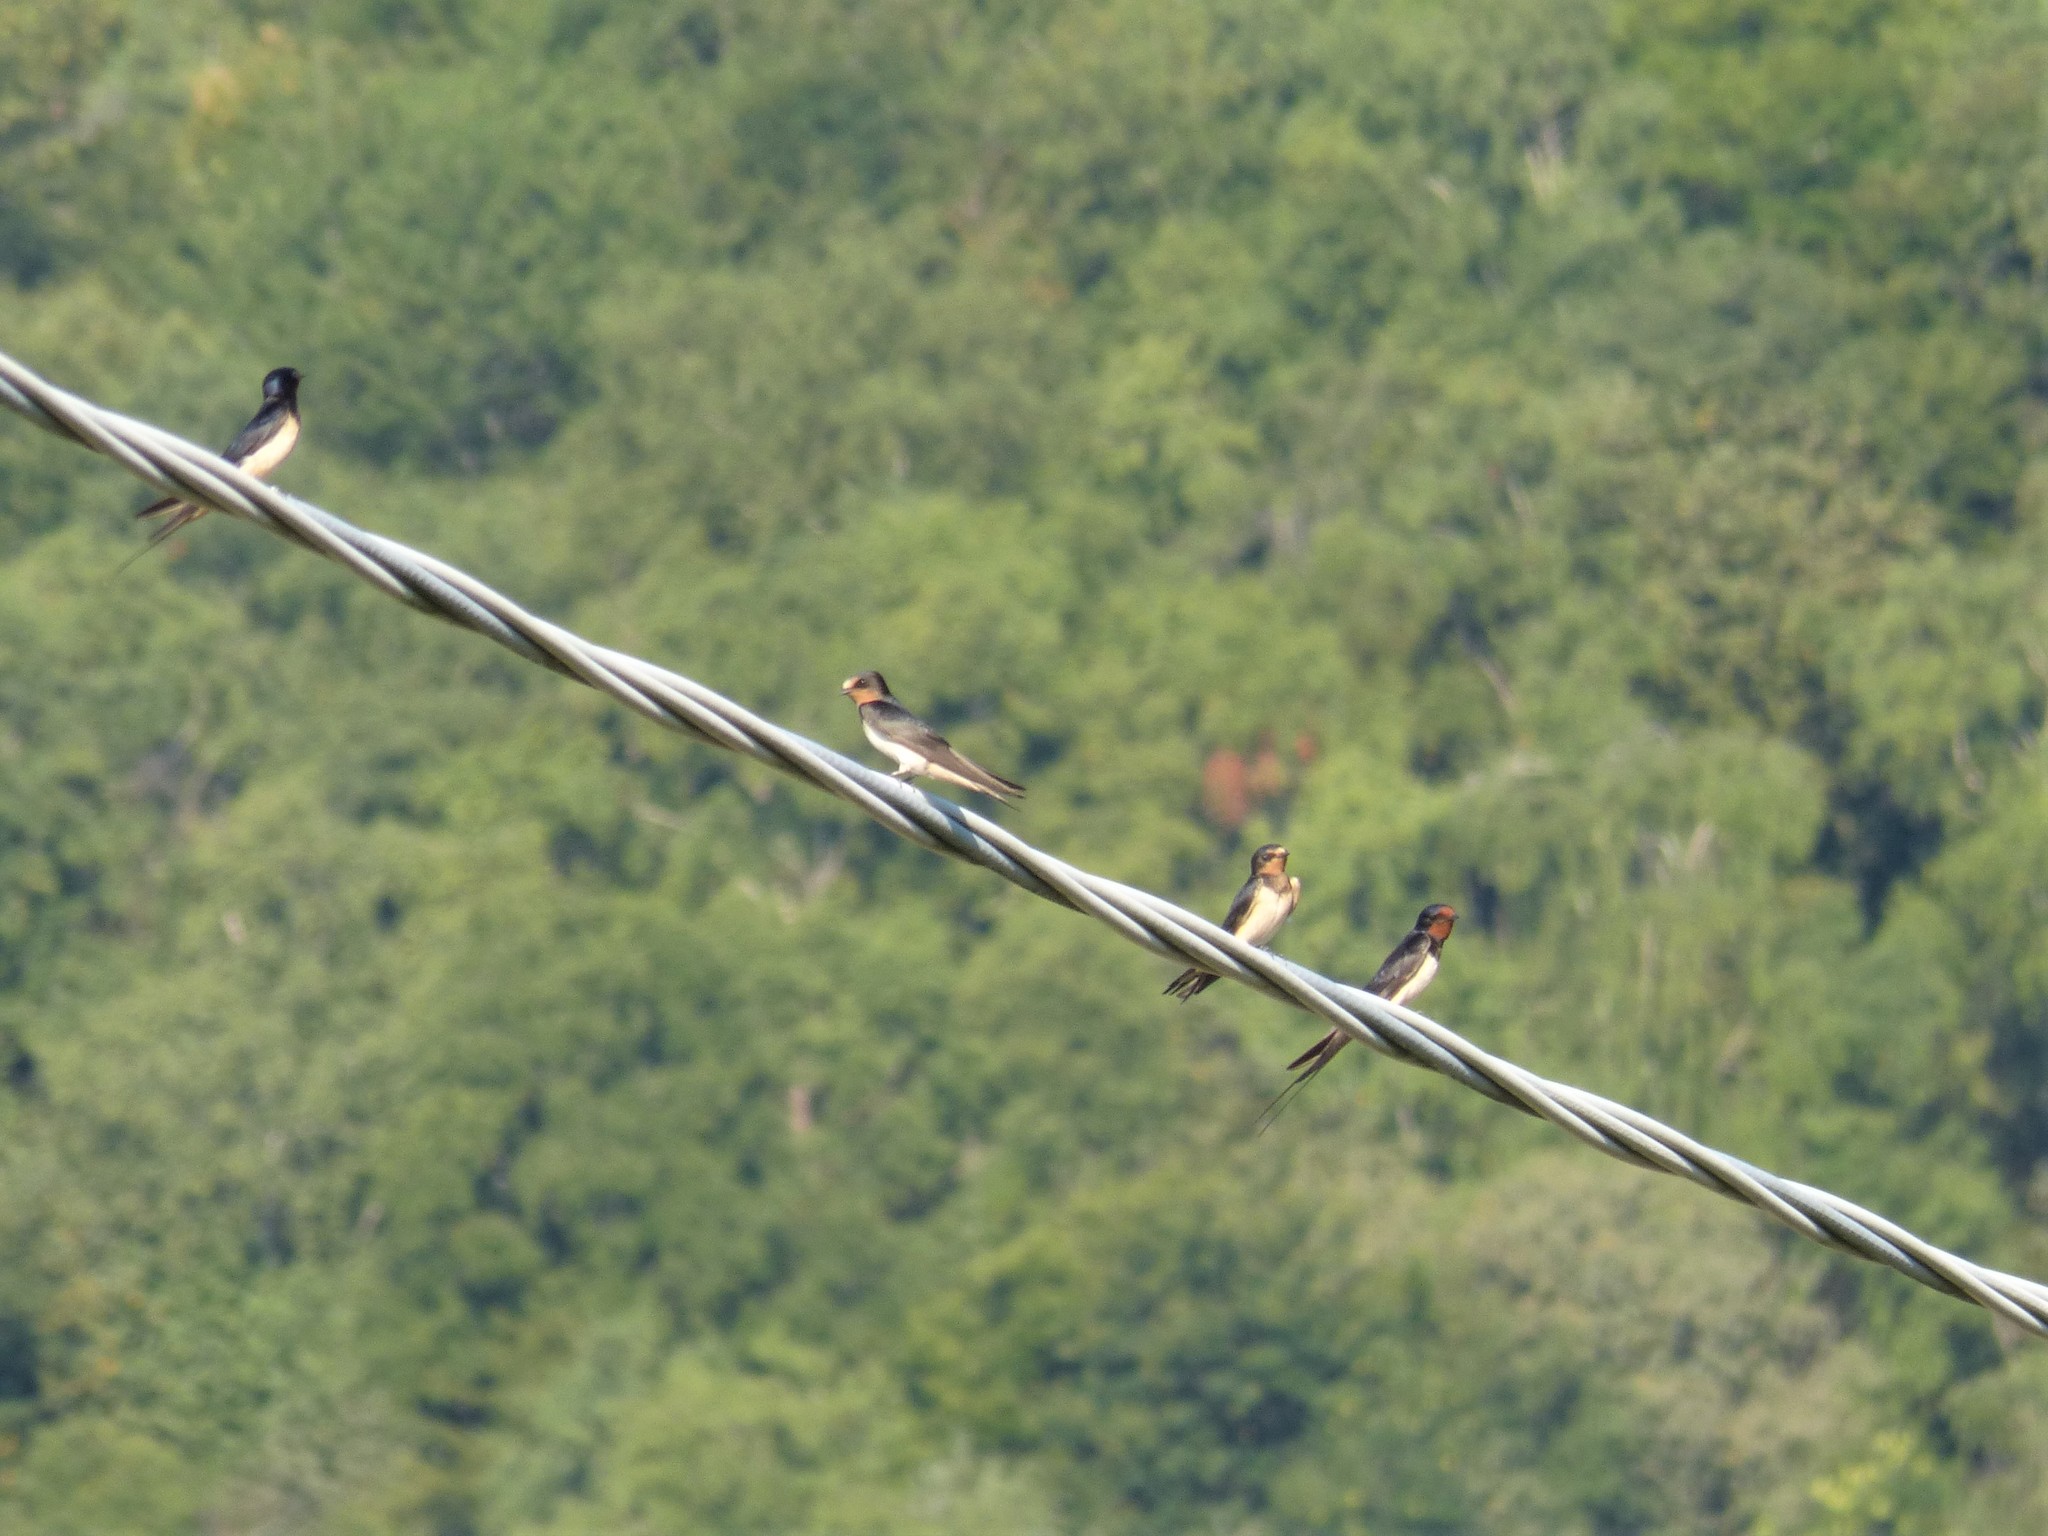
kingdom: Animalia
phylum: Chordata
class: Aves
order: Passeriformes
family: Hirundinidae
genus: Hirundo
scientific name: Hirundo rustica
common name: Barn swallow
